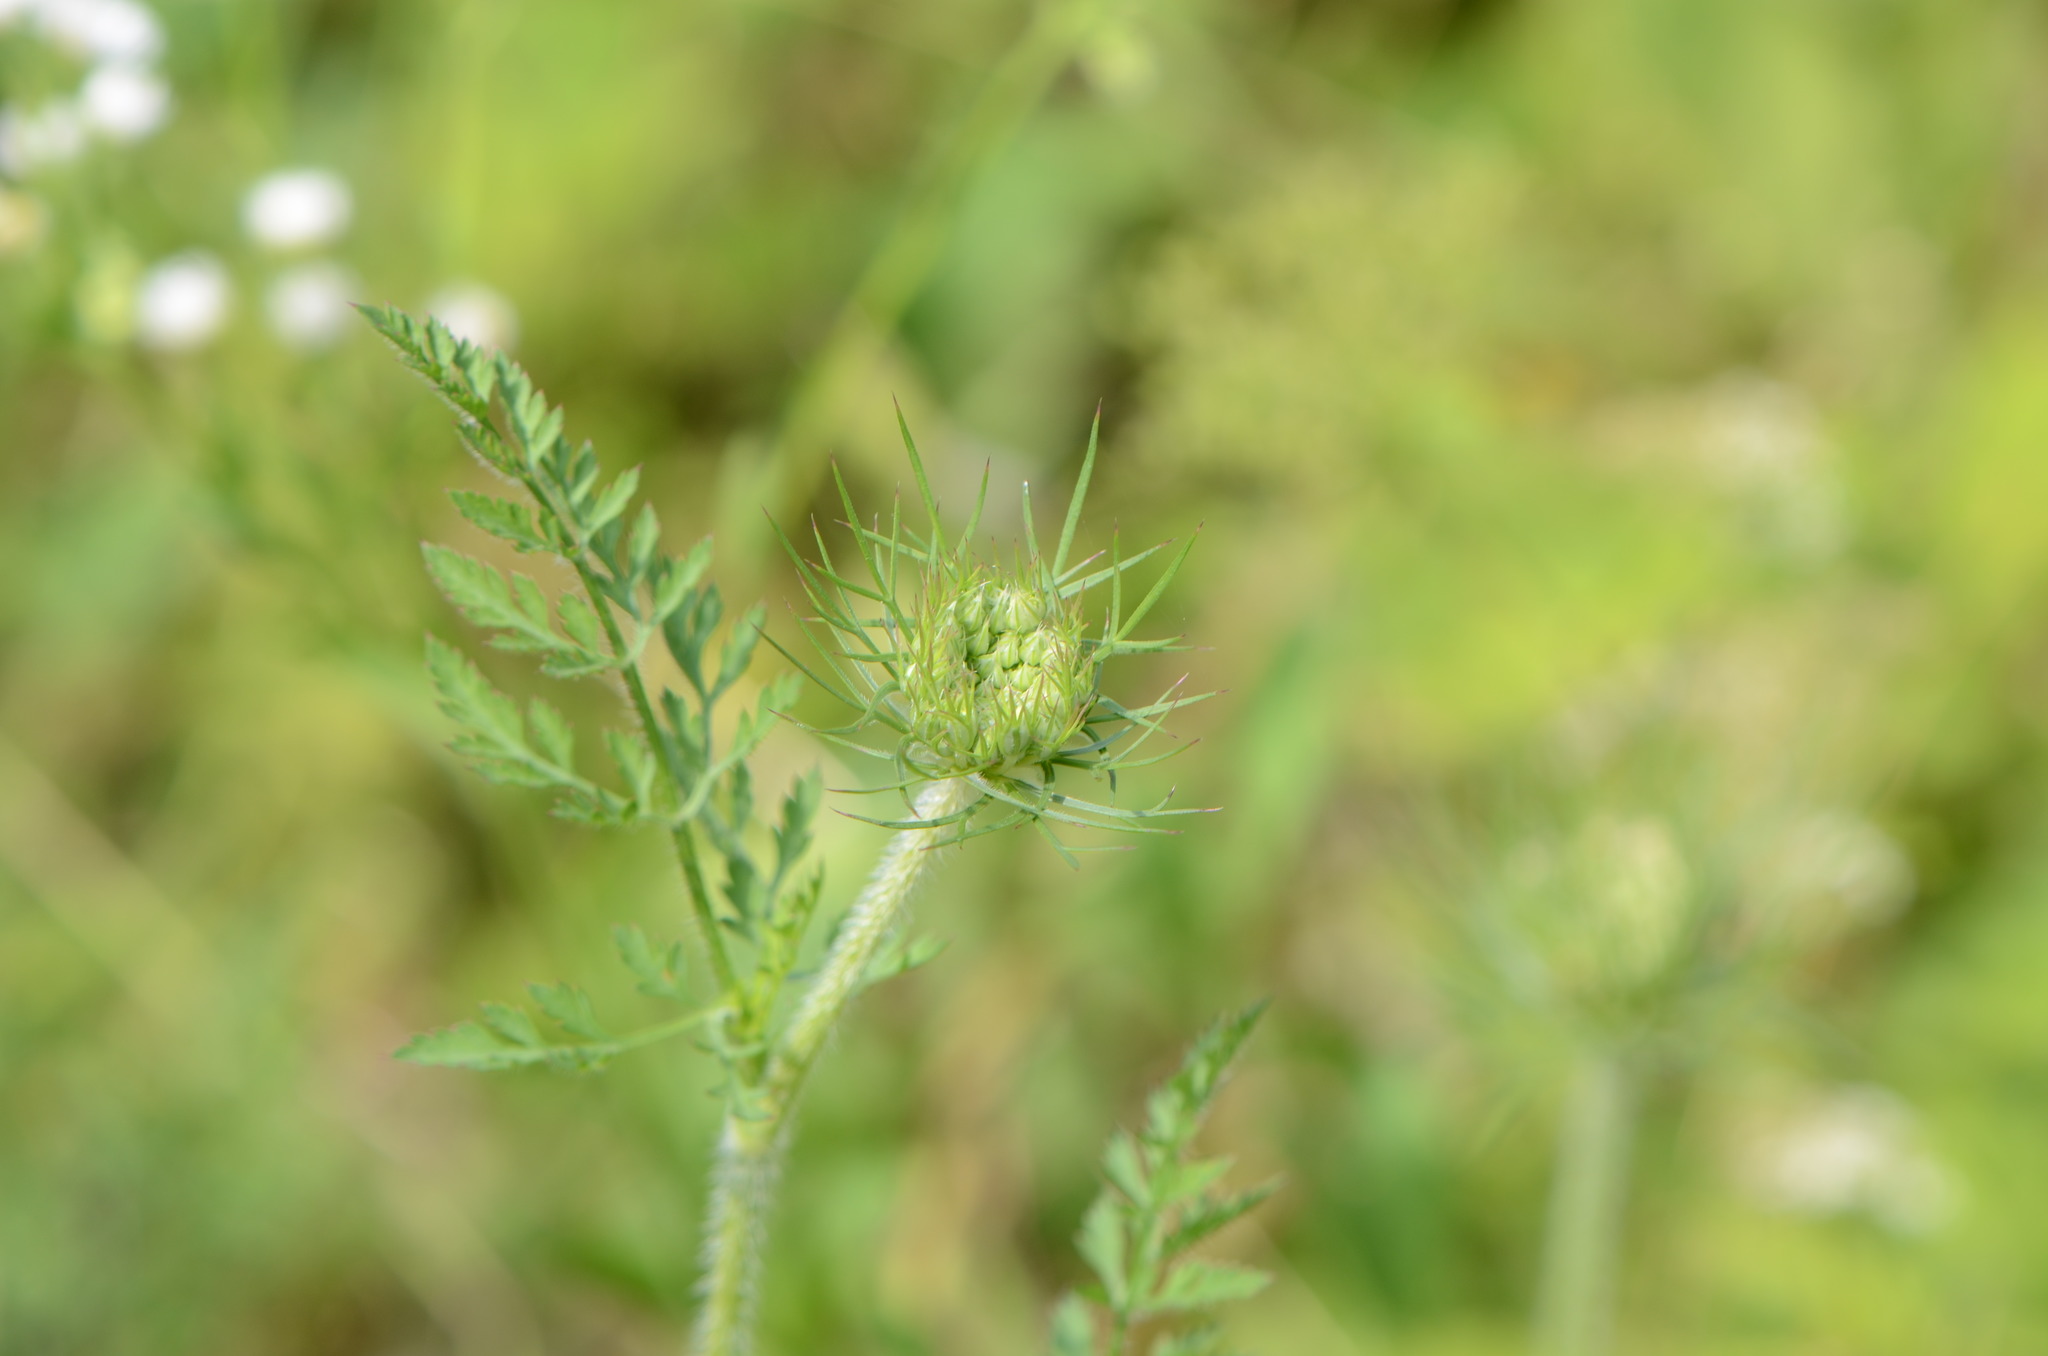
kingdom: Plantae
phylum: Tracheophyta
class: Magnoliopsida
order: Apiales
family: Apiaceae
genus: Daucus
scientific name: Daucus carota
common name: Wild carrot
